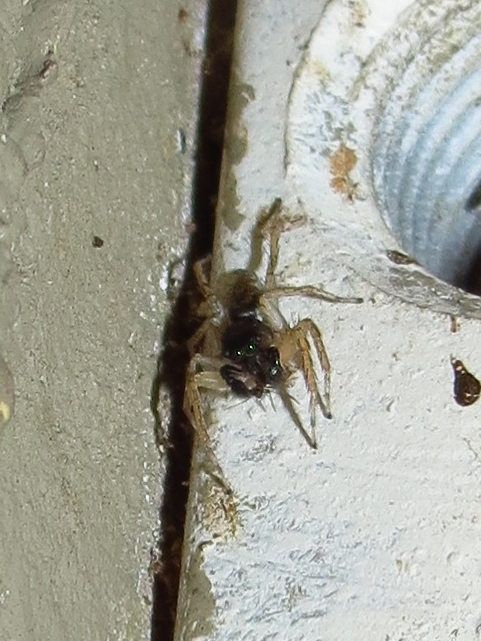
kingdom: Animalia
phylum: Arthropoda
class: Arachnida
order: Araneae
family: Salticidae
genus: Maevia
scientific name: Maevia inclemens
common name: Dimorphic jumper
